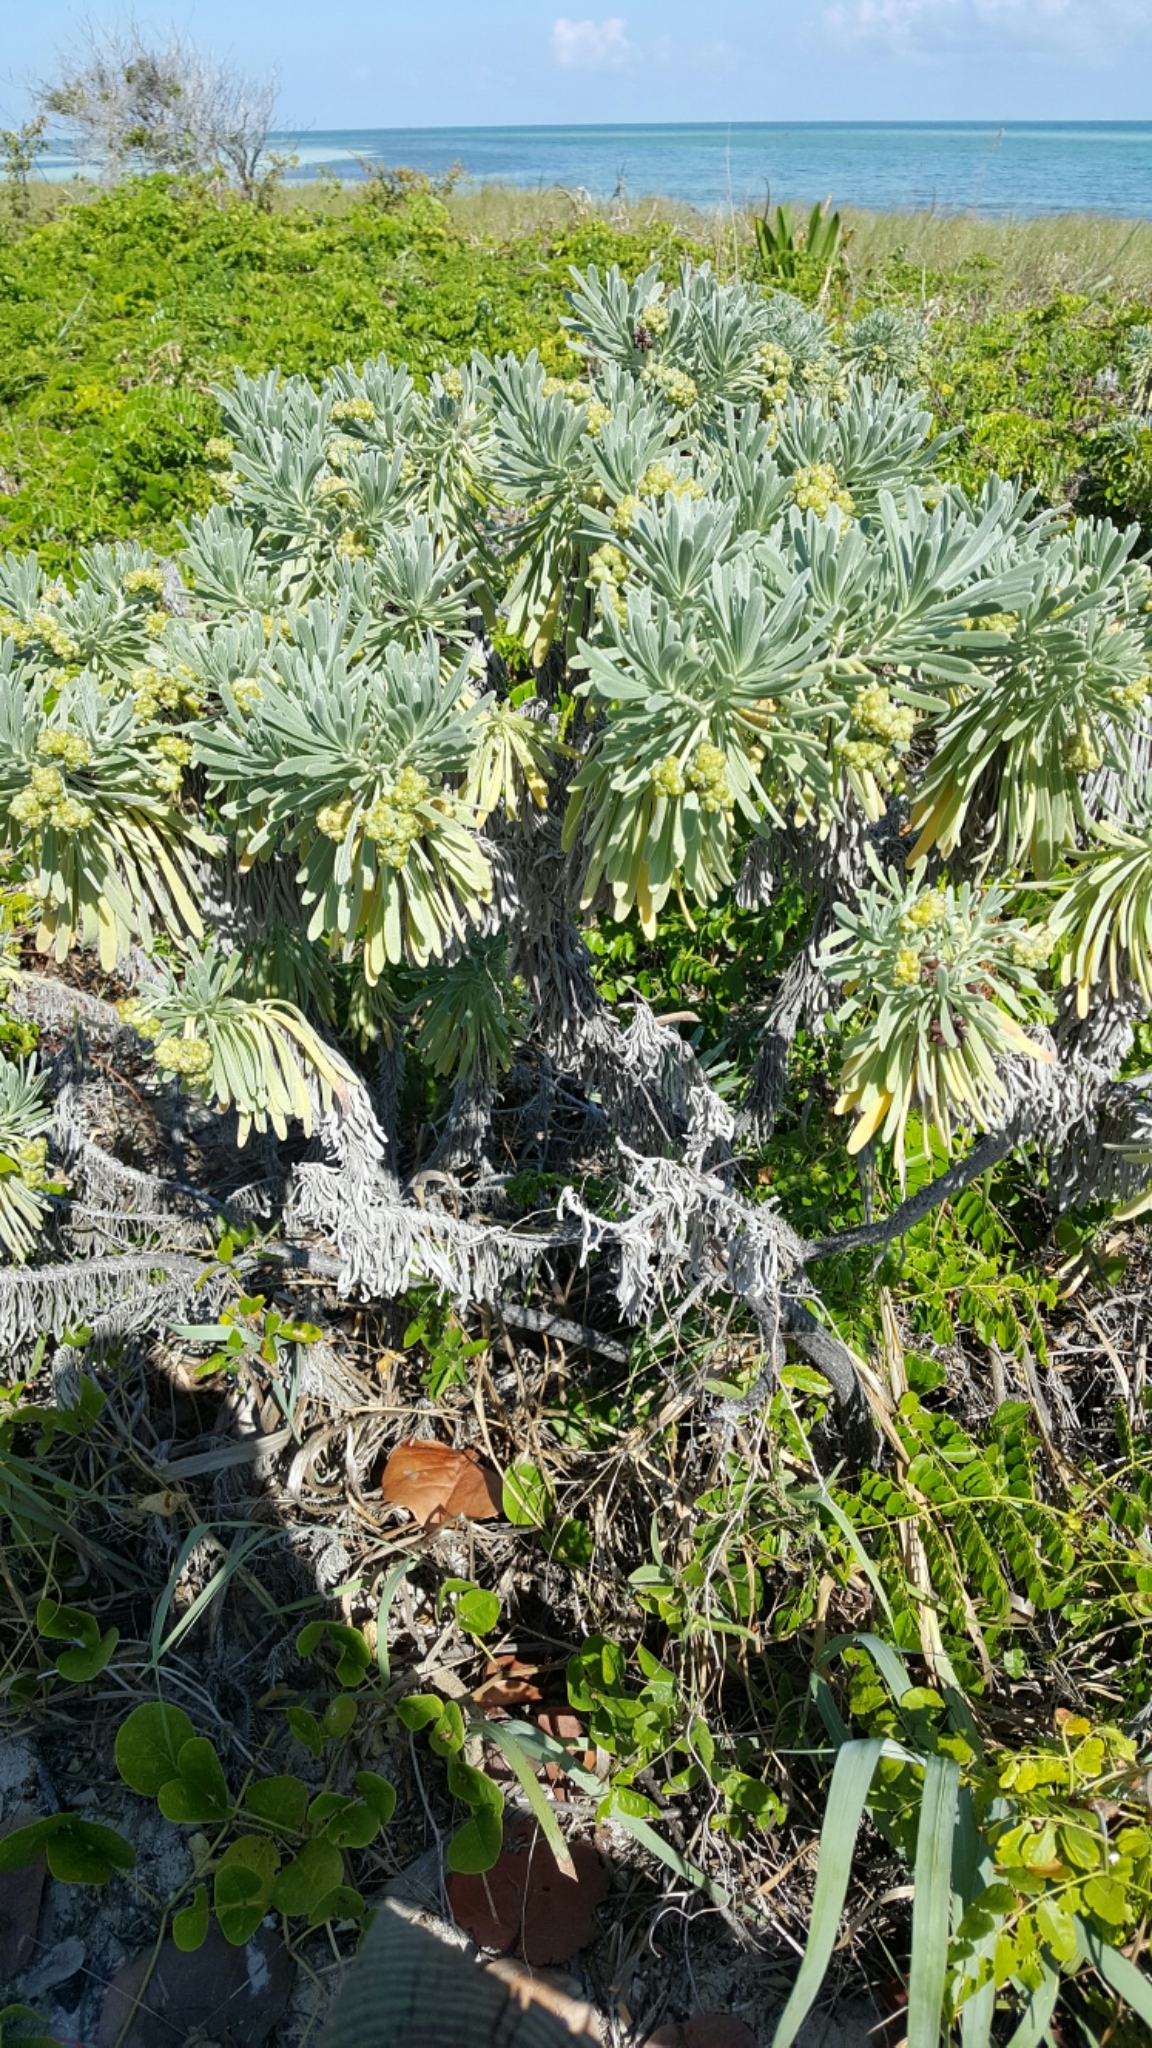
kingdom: Plantae
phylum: Tracheophyta
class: Magnoliopsida
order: Boraginales
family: Heliotropiaceae
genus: Tournefortia
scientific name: Tournefortia gnaphalodes
